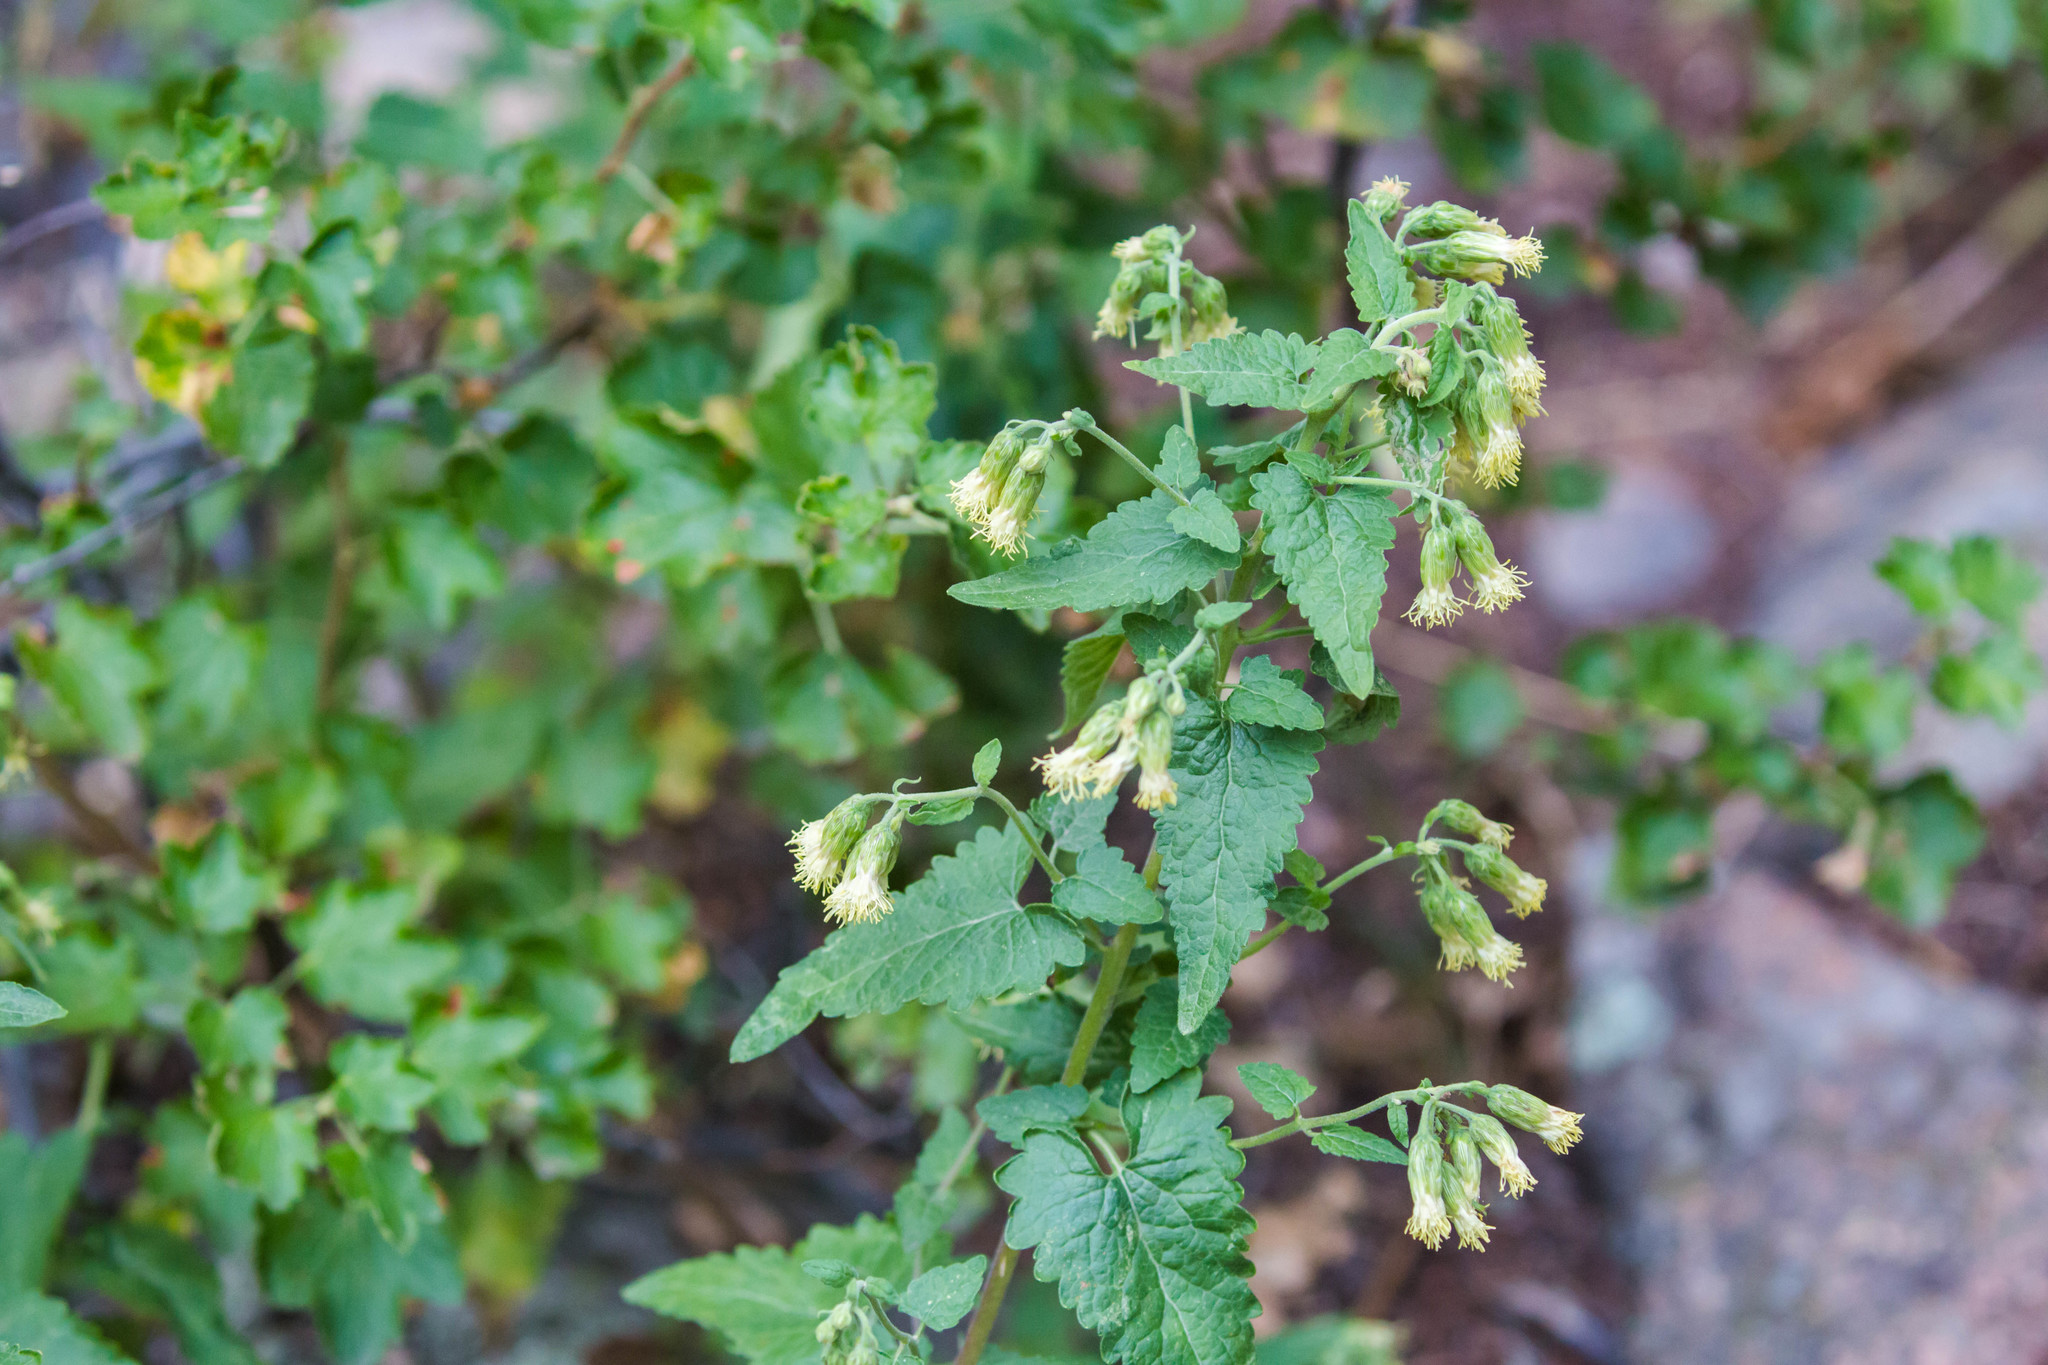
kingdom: Plantae
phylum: Tracheophyta
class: Magnoliopsida
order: Asterales
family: Asteraceae
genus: Brickellia
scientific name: Brickellia grandiflora
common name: Large-flowered brickellia
